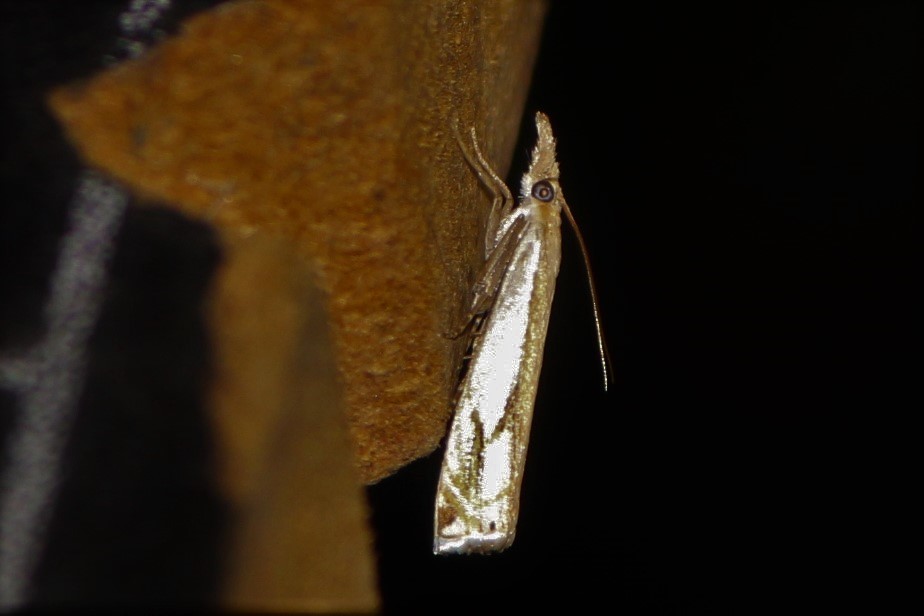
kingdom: Animalia
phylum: Arthropoda
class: Insecta
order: Lepidoptera
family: Crambidae
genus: Crambus
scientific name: Crambus agitatellus
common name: Double-banded grass-veneer
